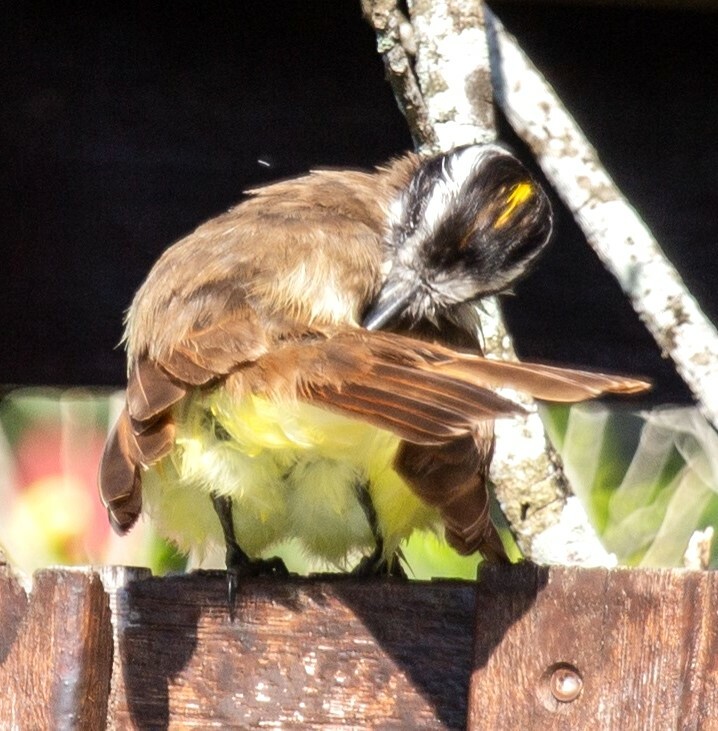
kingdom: Animalia
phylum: Chordata
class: Aves
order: Passeriformes
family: Tyrannidae
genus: Pitangus
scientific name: Pitangus sulphuratus
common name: Great kiskadee
